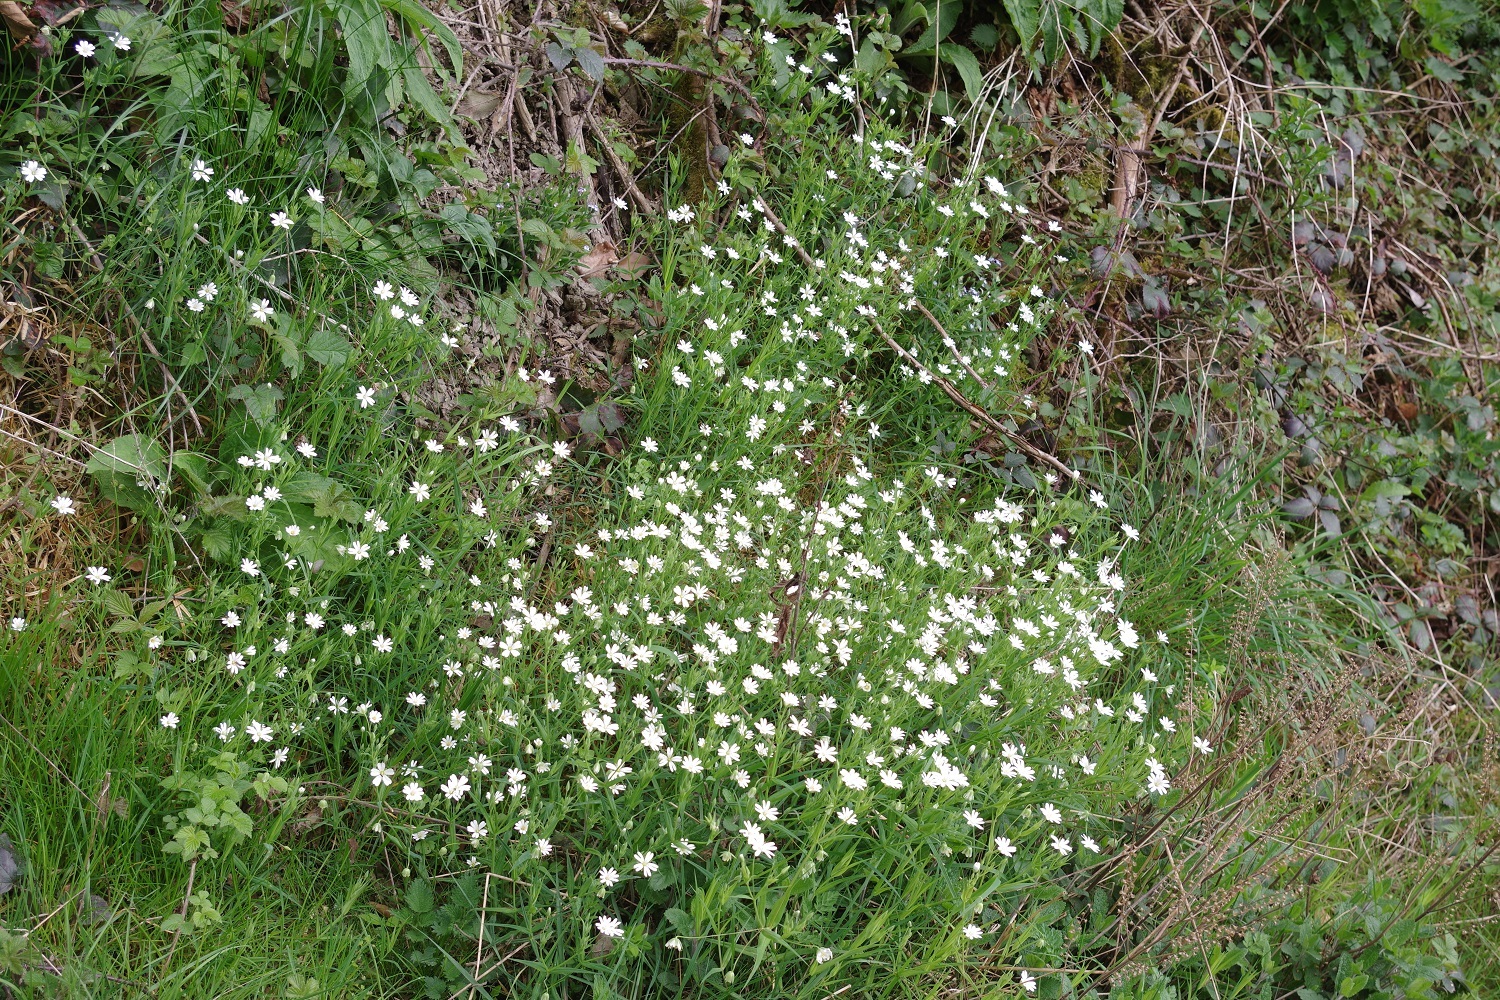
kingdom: Plantae
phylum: Tracheophyta
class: Magnoliopsida
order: Caryophyllales
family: Caryophyllaceae
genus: Rabelera
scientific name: Rabelera holostea
